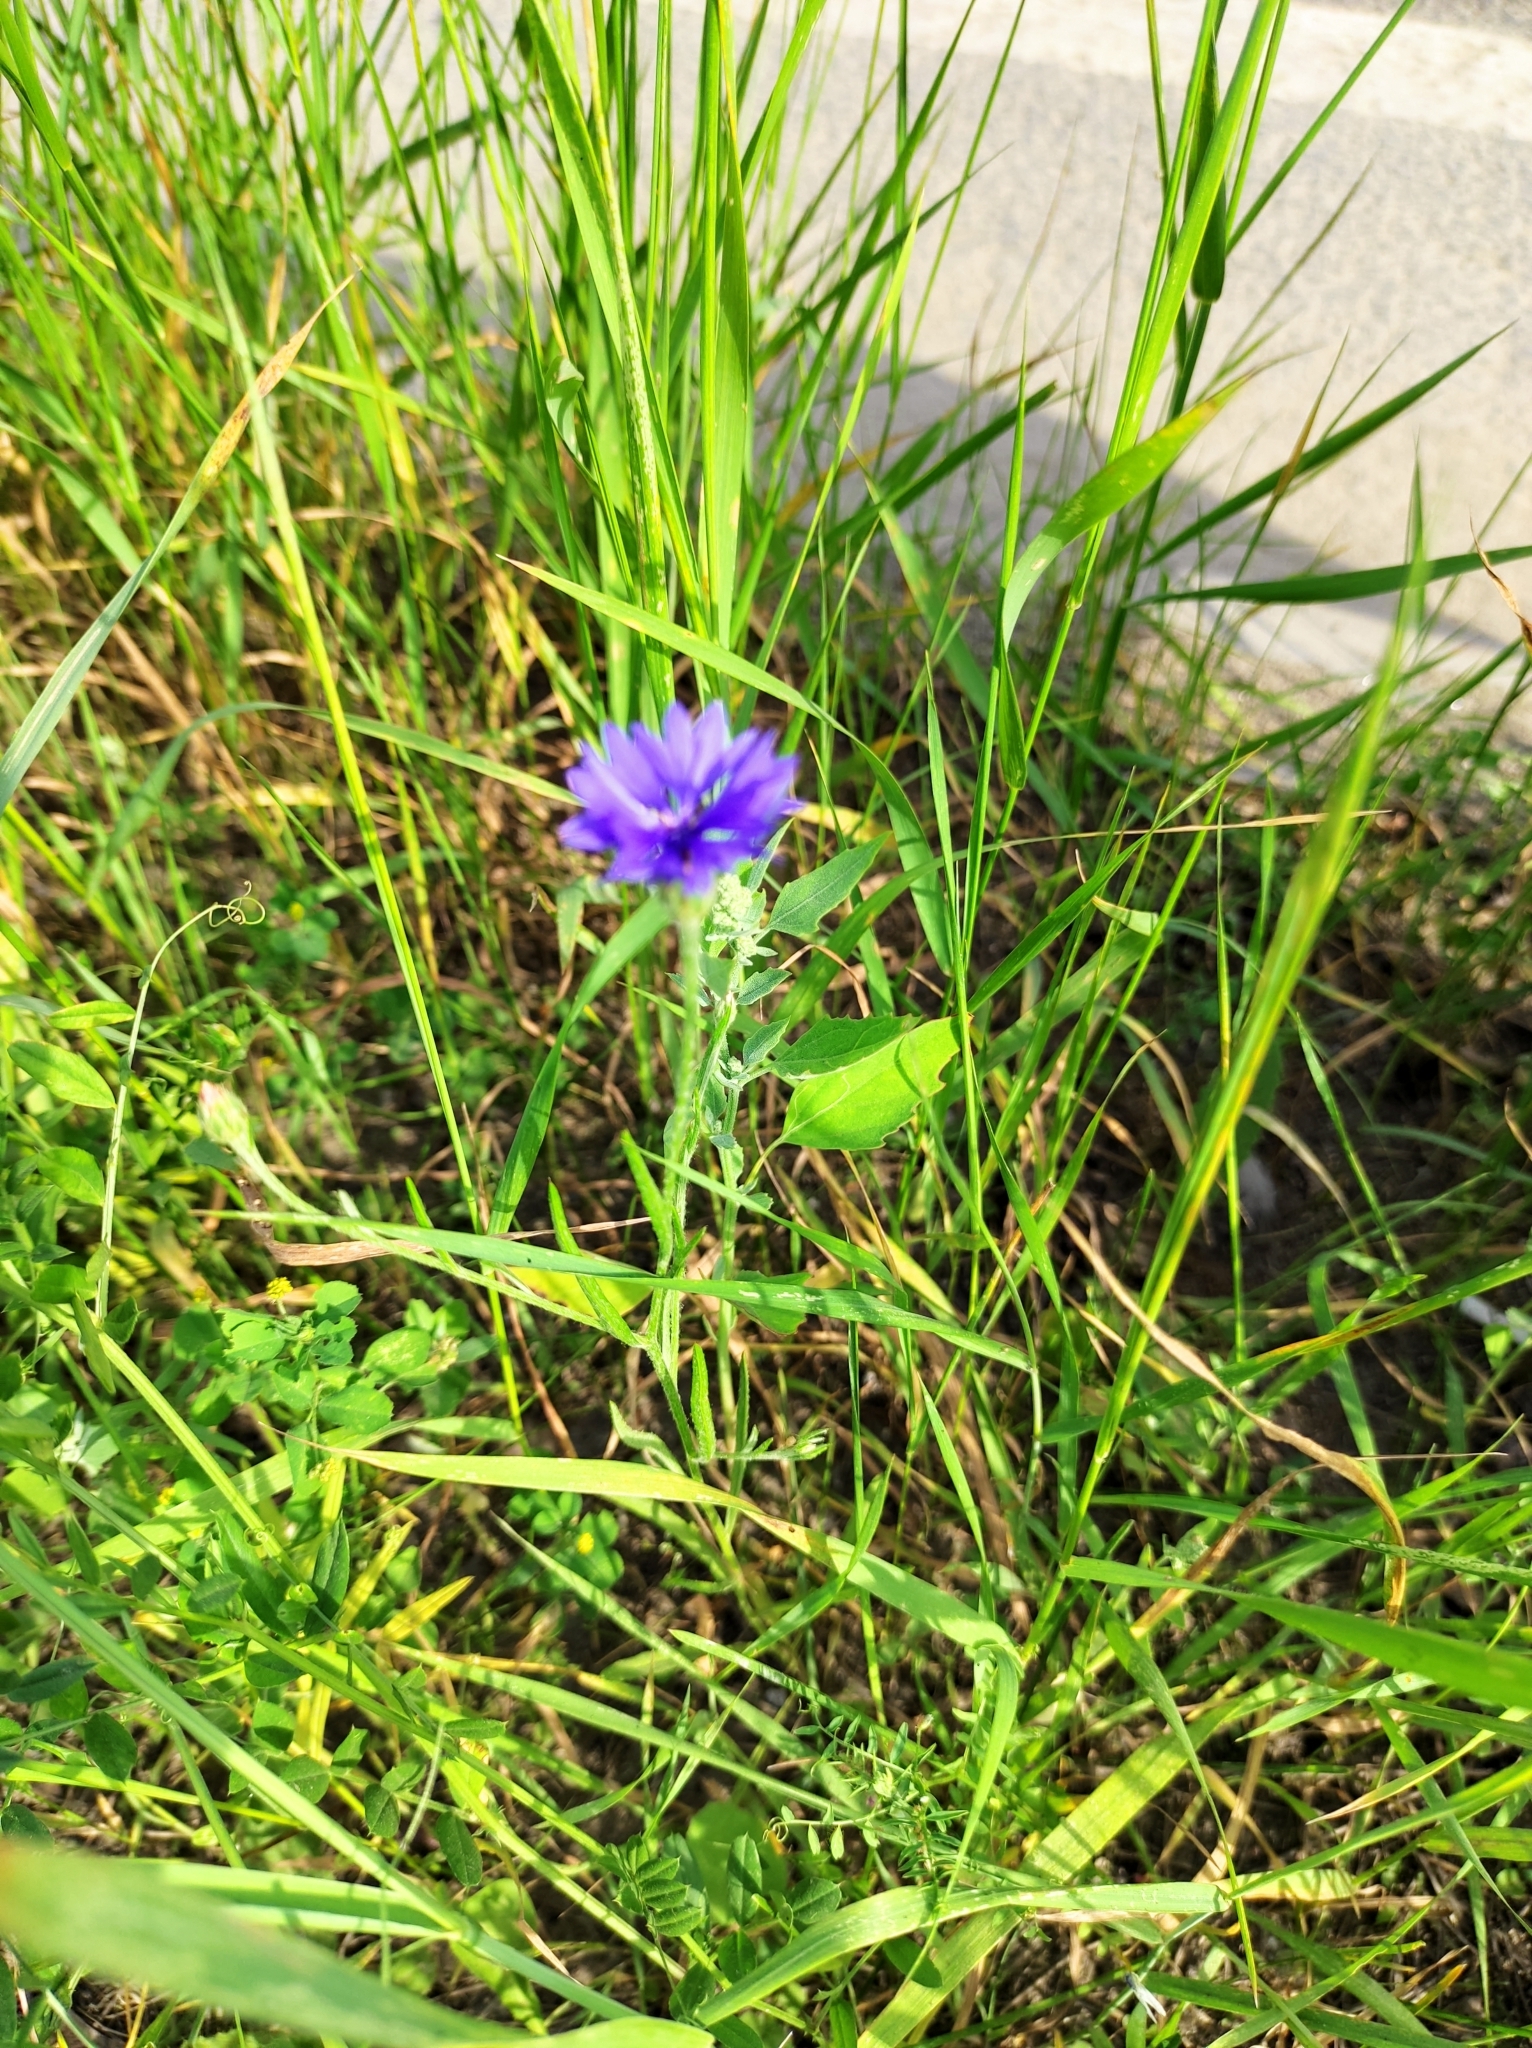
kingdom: Plantae
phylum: Tracheophyta
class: Magnoliopsida
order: Asterales
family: Asteraceae
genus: Centaurea
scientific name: Centaurea cyanus
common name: Cornflower
